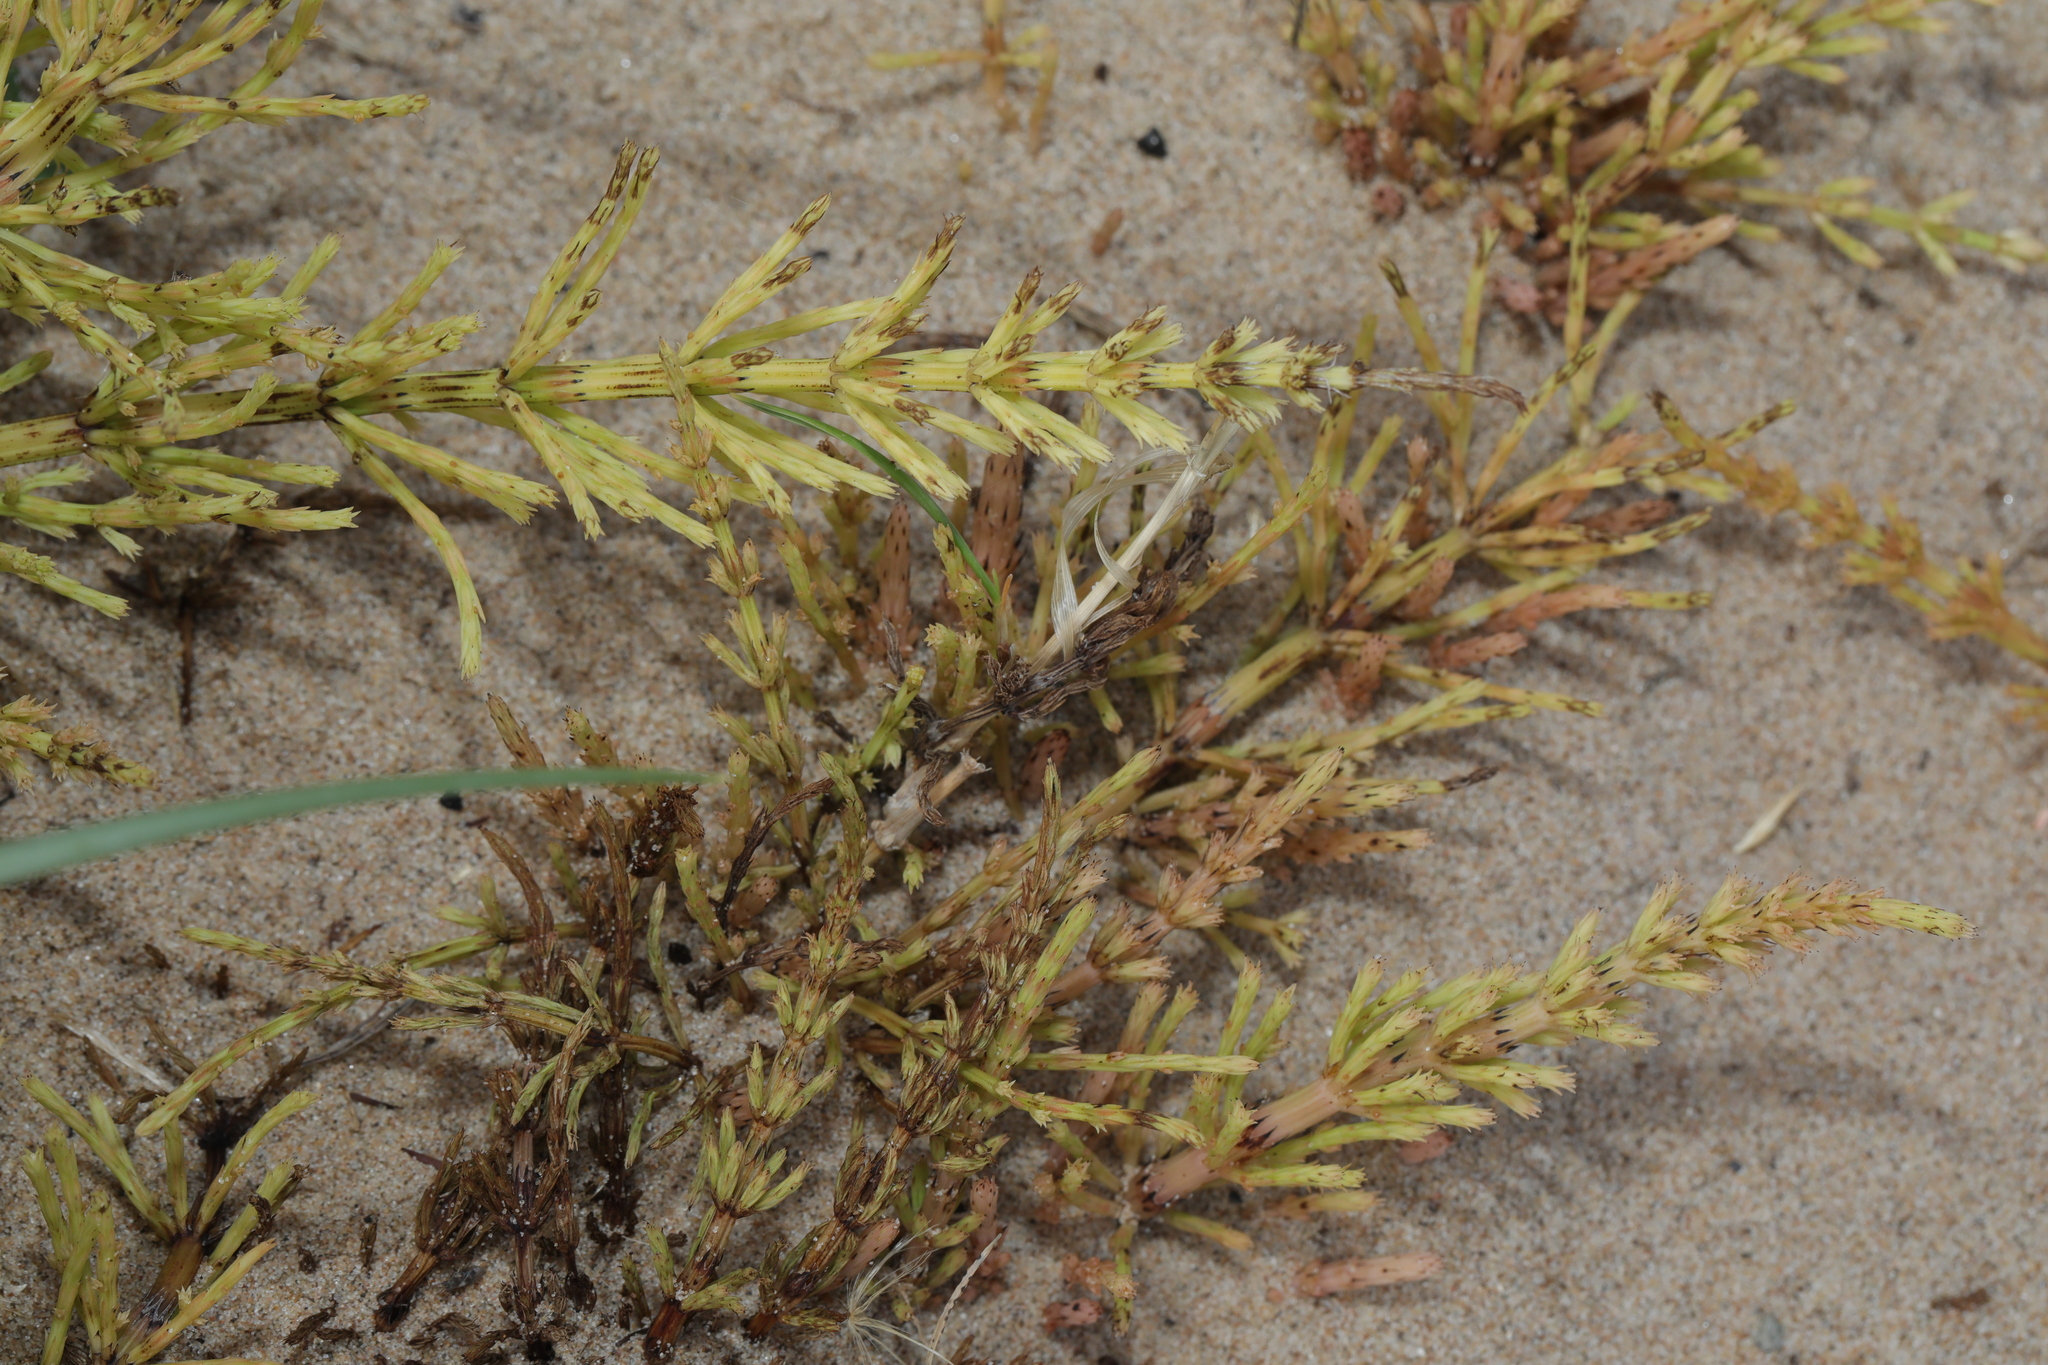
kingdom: Plantae
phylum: Tracheophyta
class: Polypodiopsida
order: Equisetales
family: Equisetaceae
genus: Equisetum
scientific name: Equisetum arvense
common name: Field horsetail
